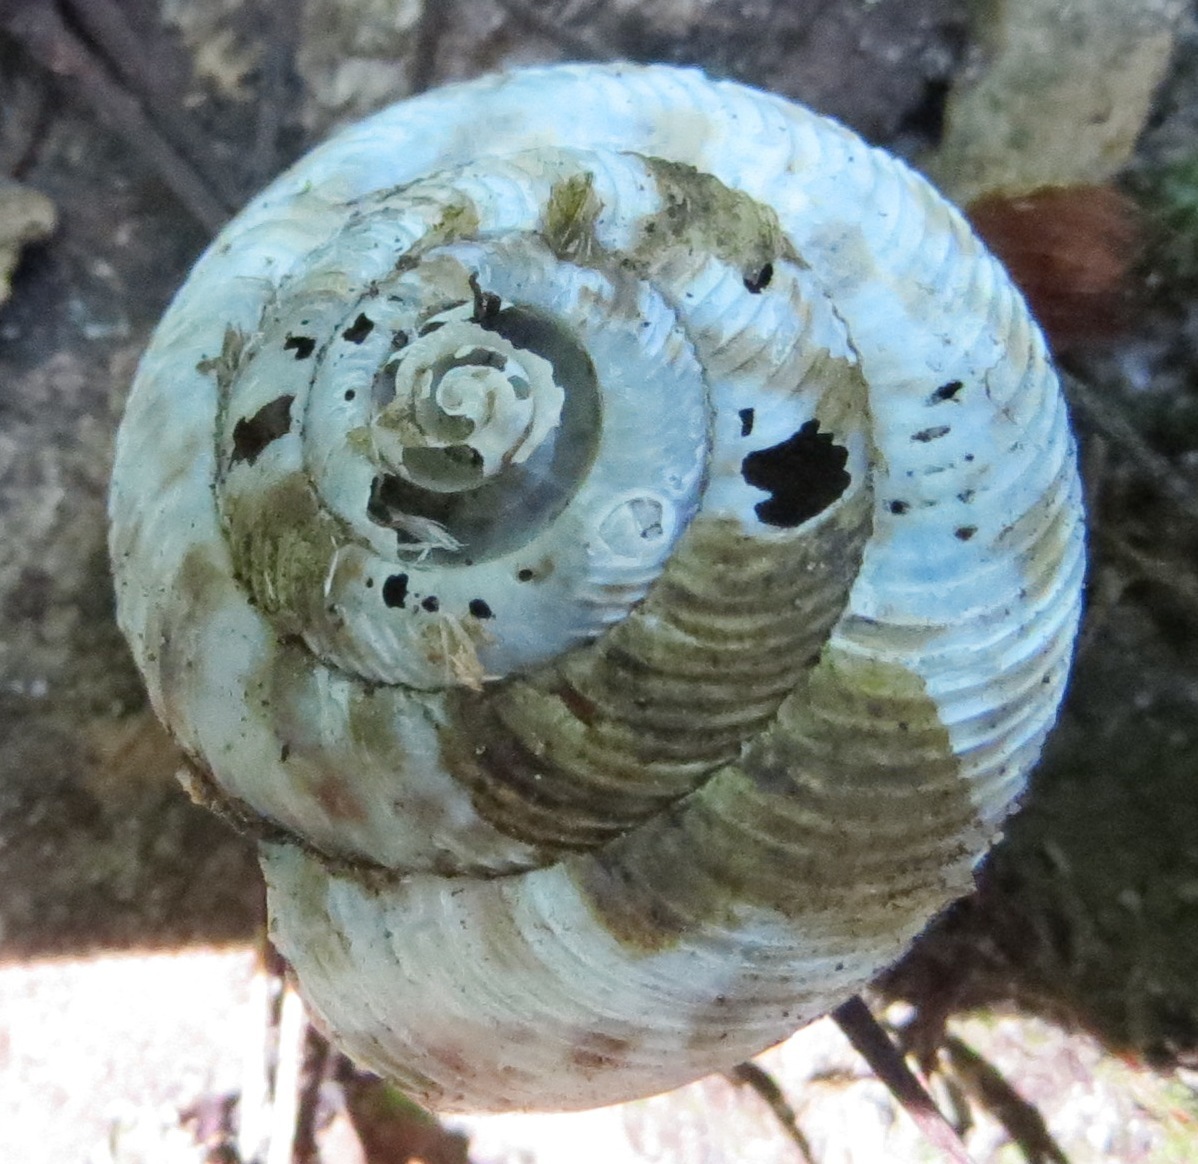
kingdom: Animalia
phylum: Mollusca
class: Gastropoda
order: Stylommatophora
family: Discidae
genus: Anguispira
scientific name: Anguispira alternata
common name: Flamed tigersnail
